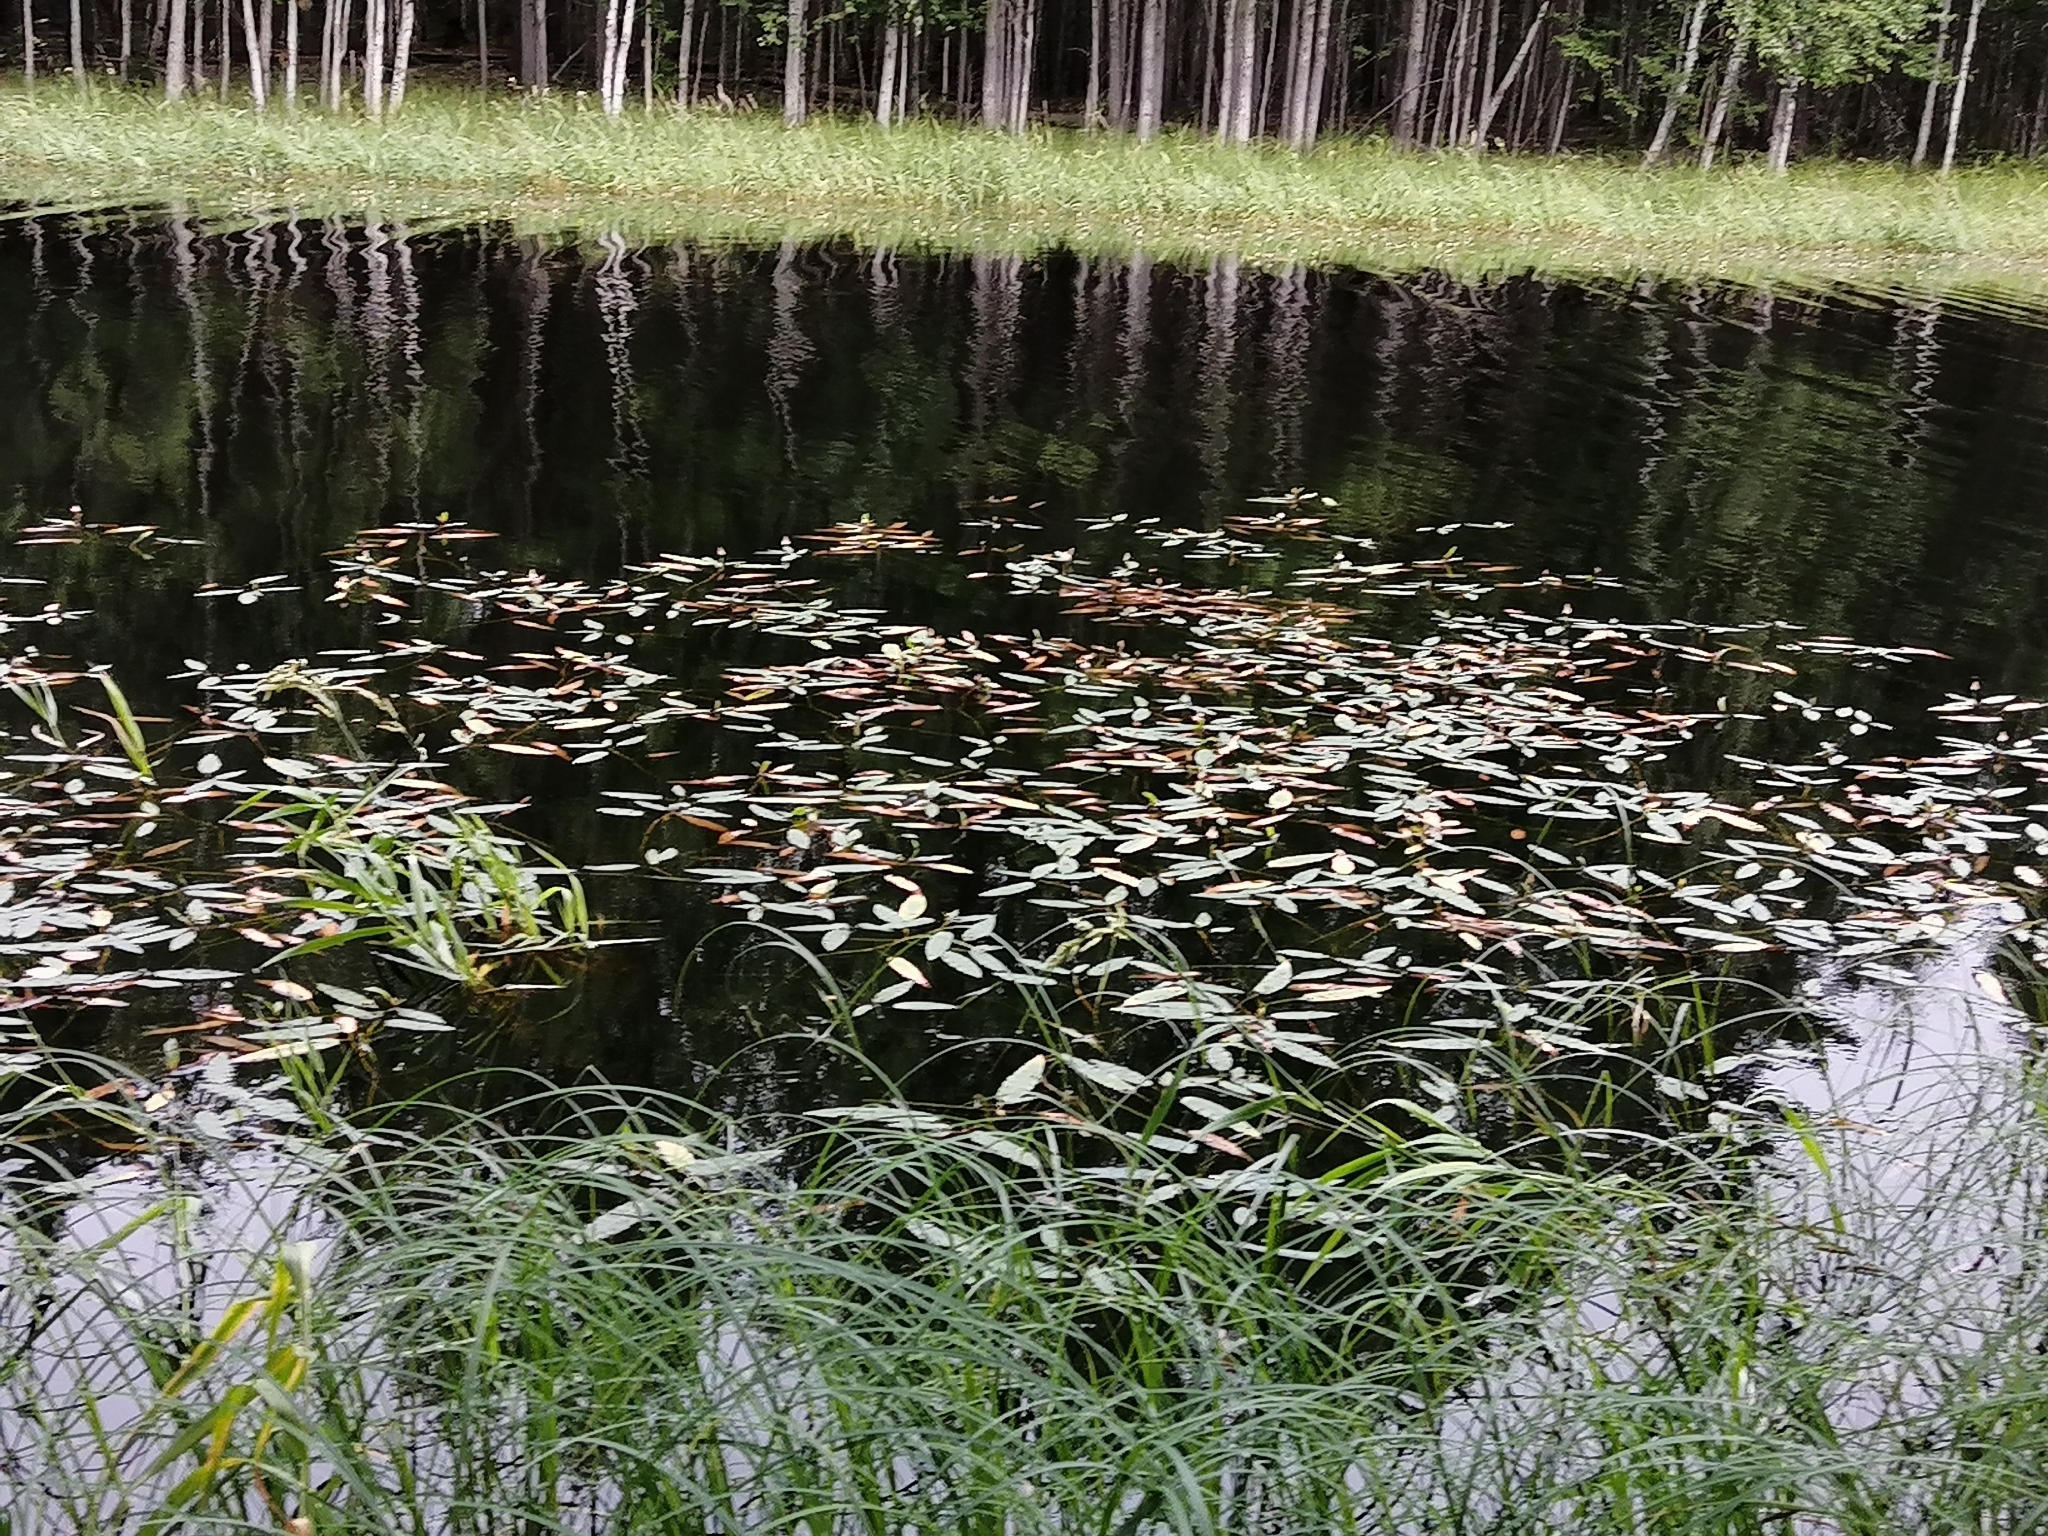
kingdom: Plantae
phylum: Tracheophyta
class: Magnoliopsida
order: Caryophyllales
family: Polygonaceae
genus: Persicaria
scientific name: Persicaria amphibia
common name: Amphibious bistort
